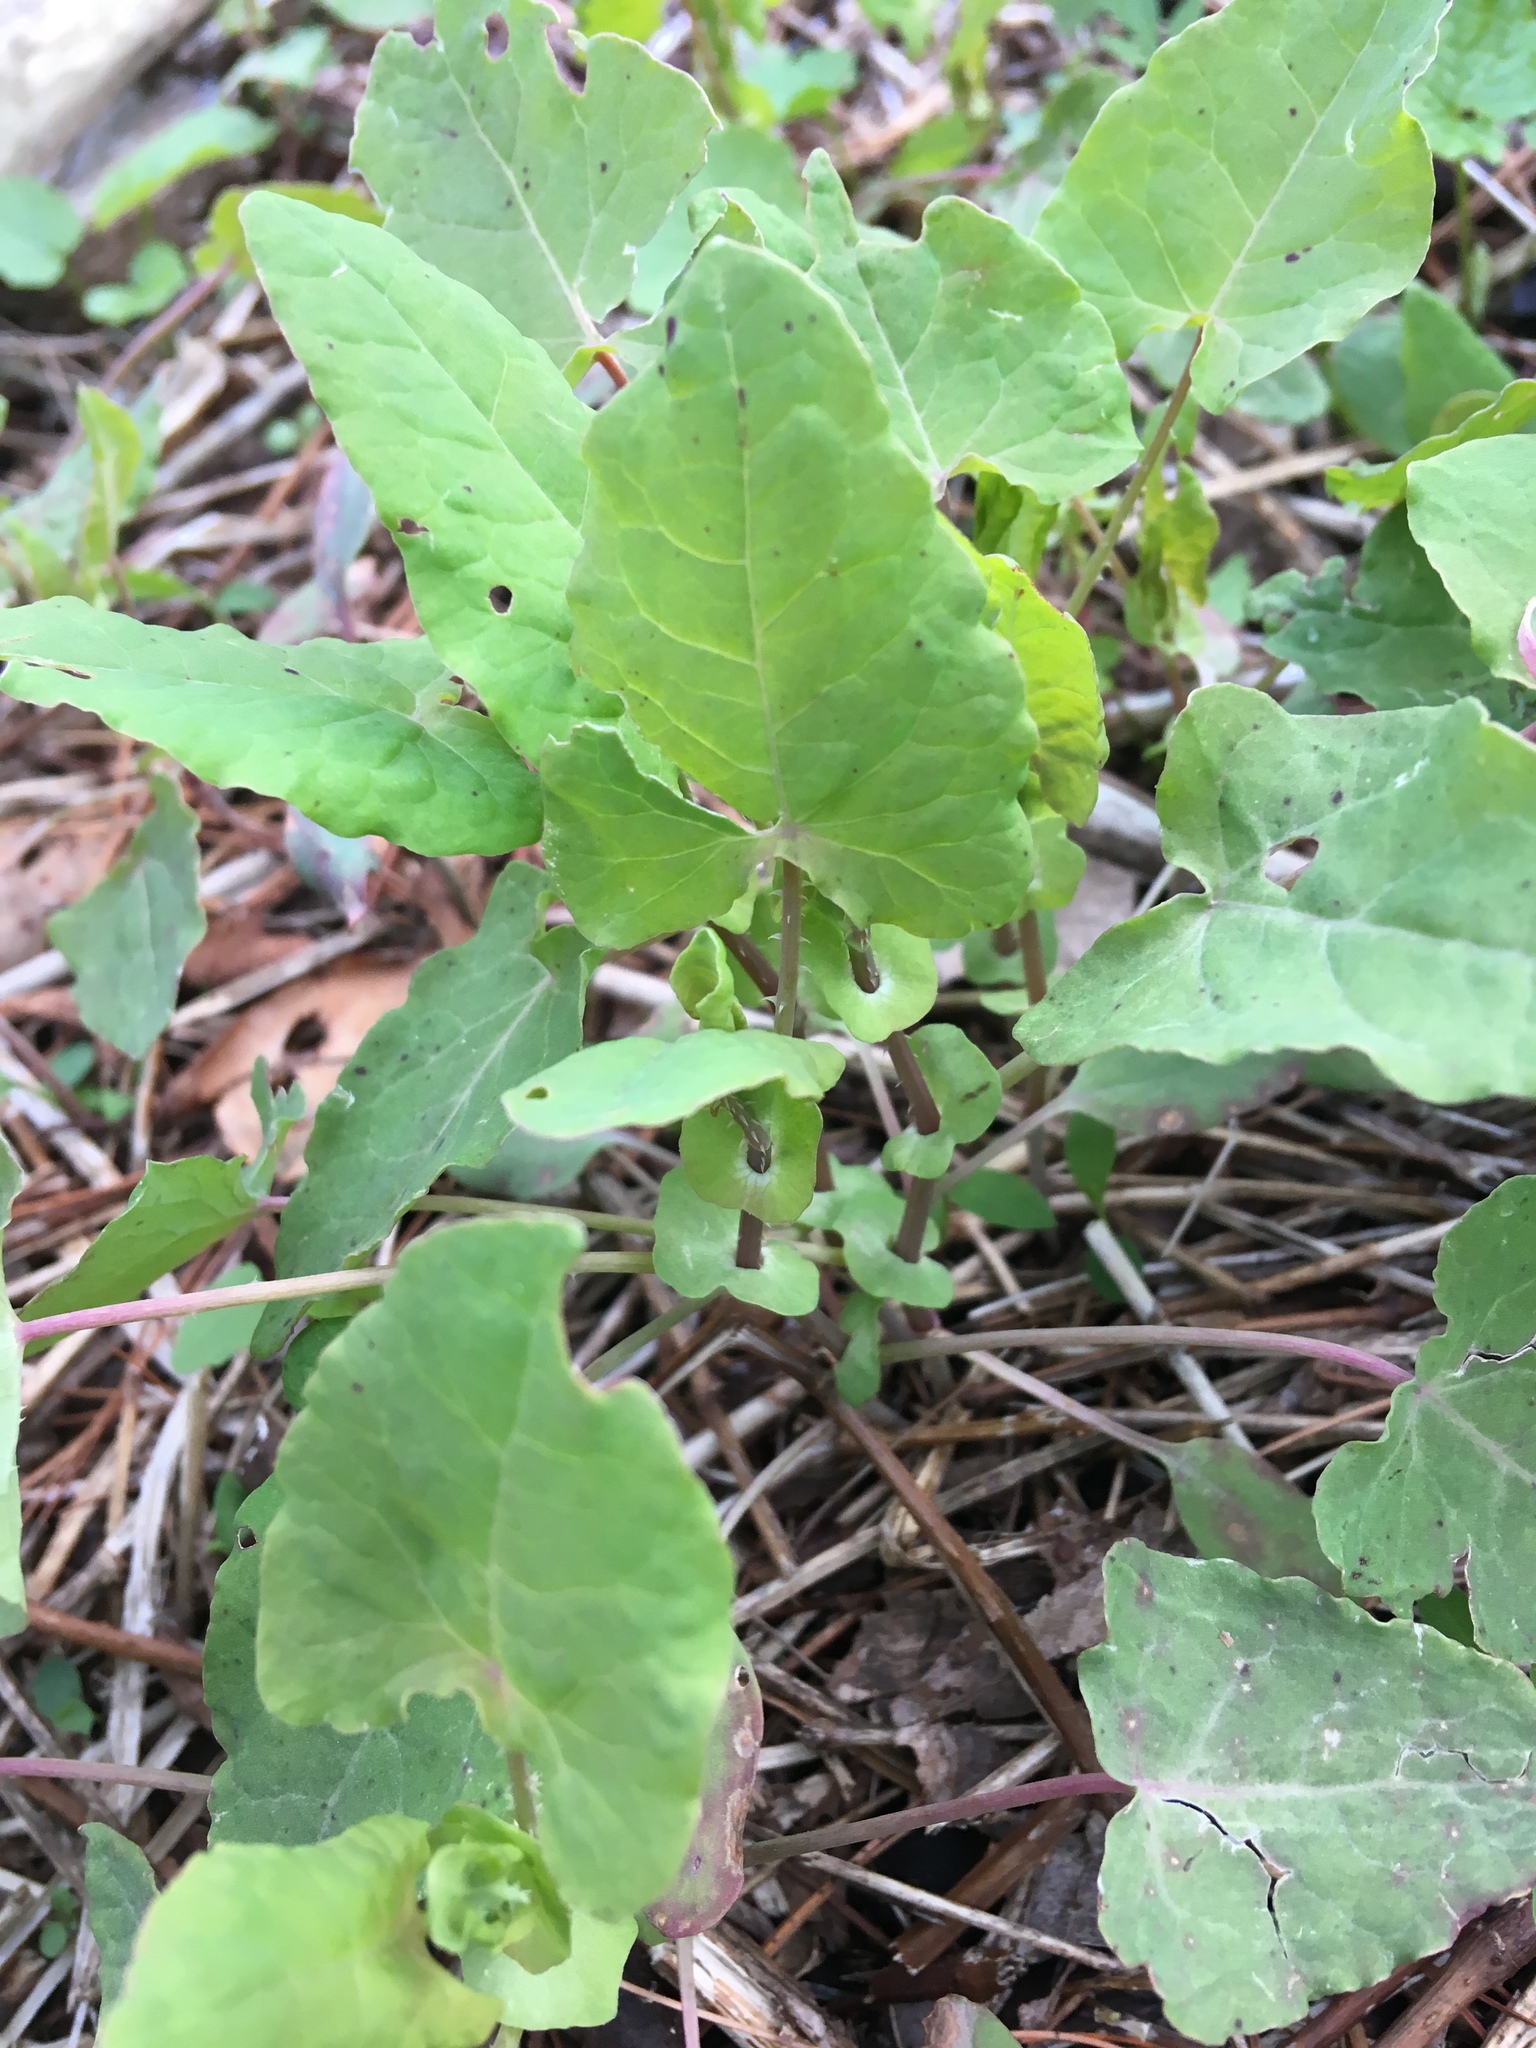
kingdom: Plantae
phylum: Tracheophyta
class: Magnoliopsida
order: Caryophyllales
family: Polygonaceae
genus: Persicaria
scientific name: Persicaria perfoliata
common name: Asiatic tearthumb
